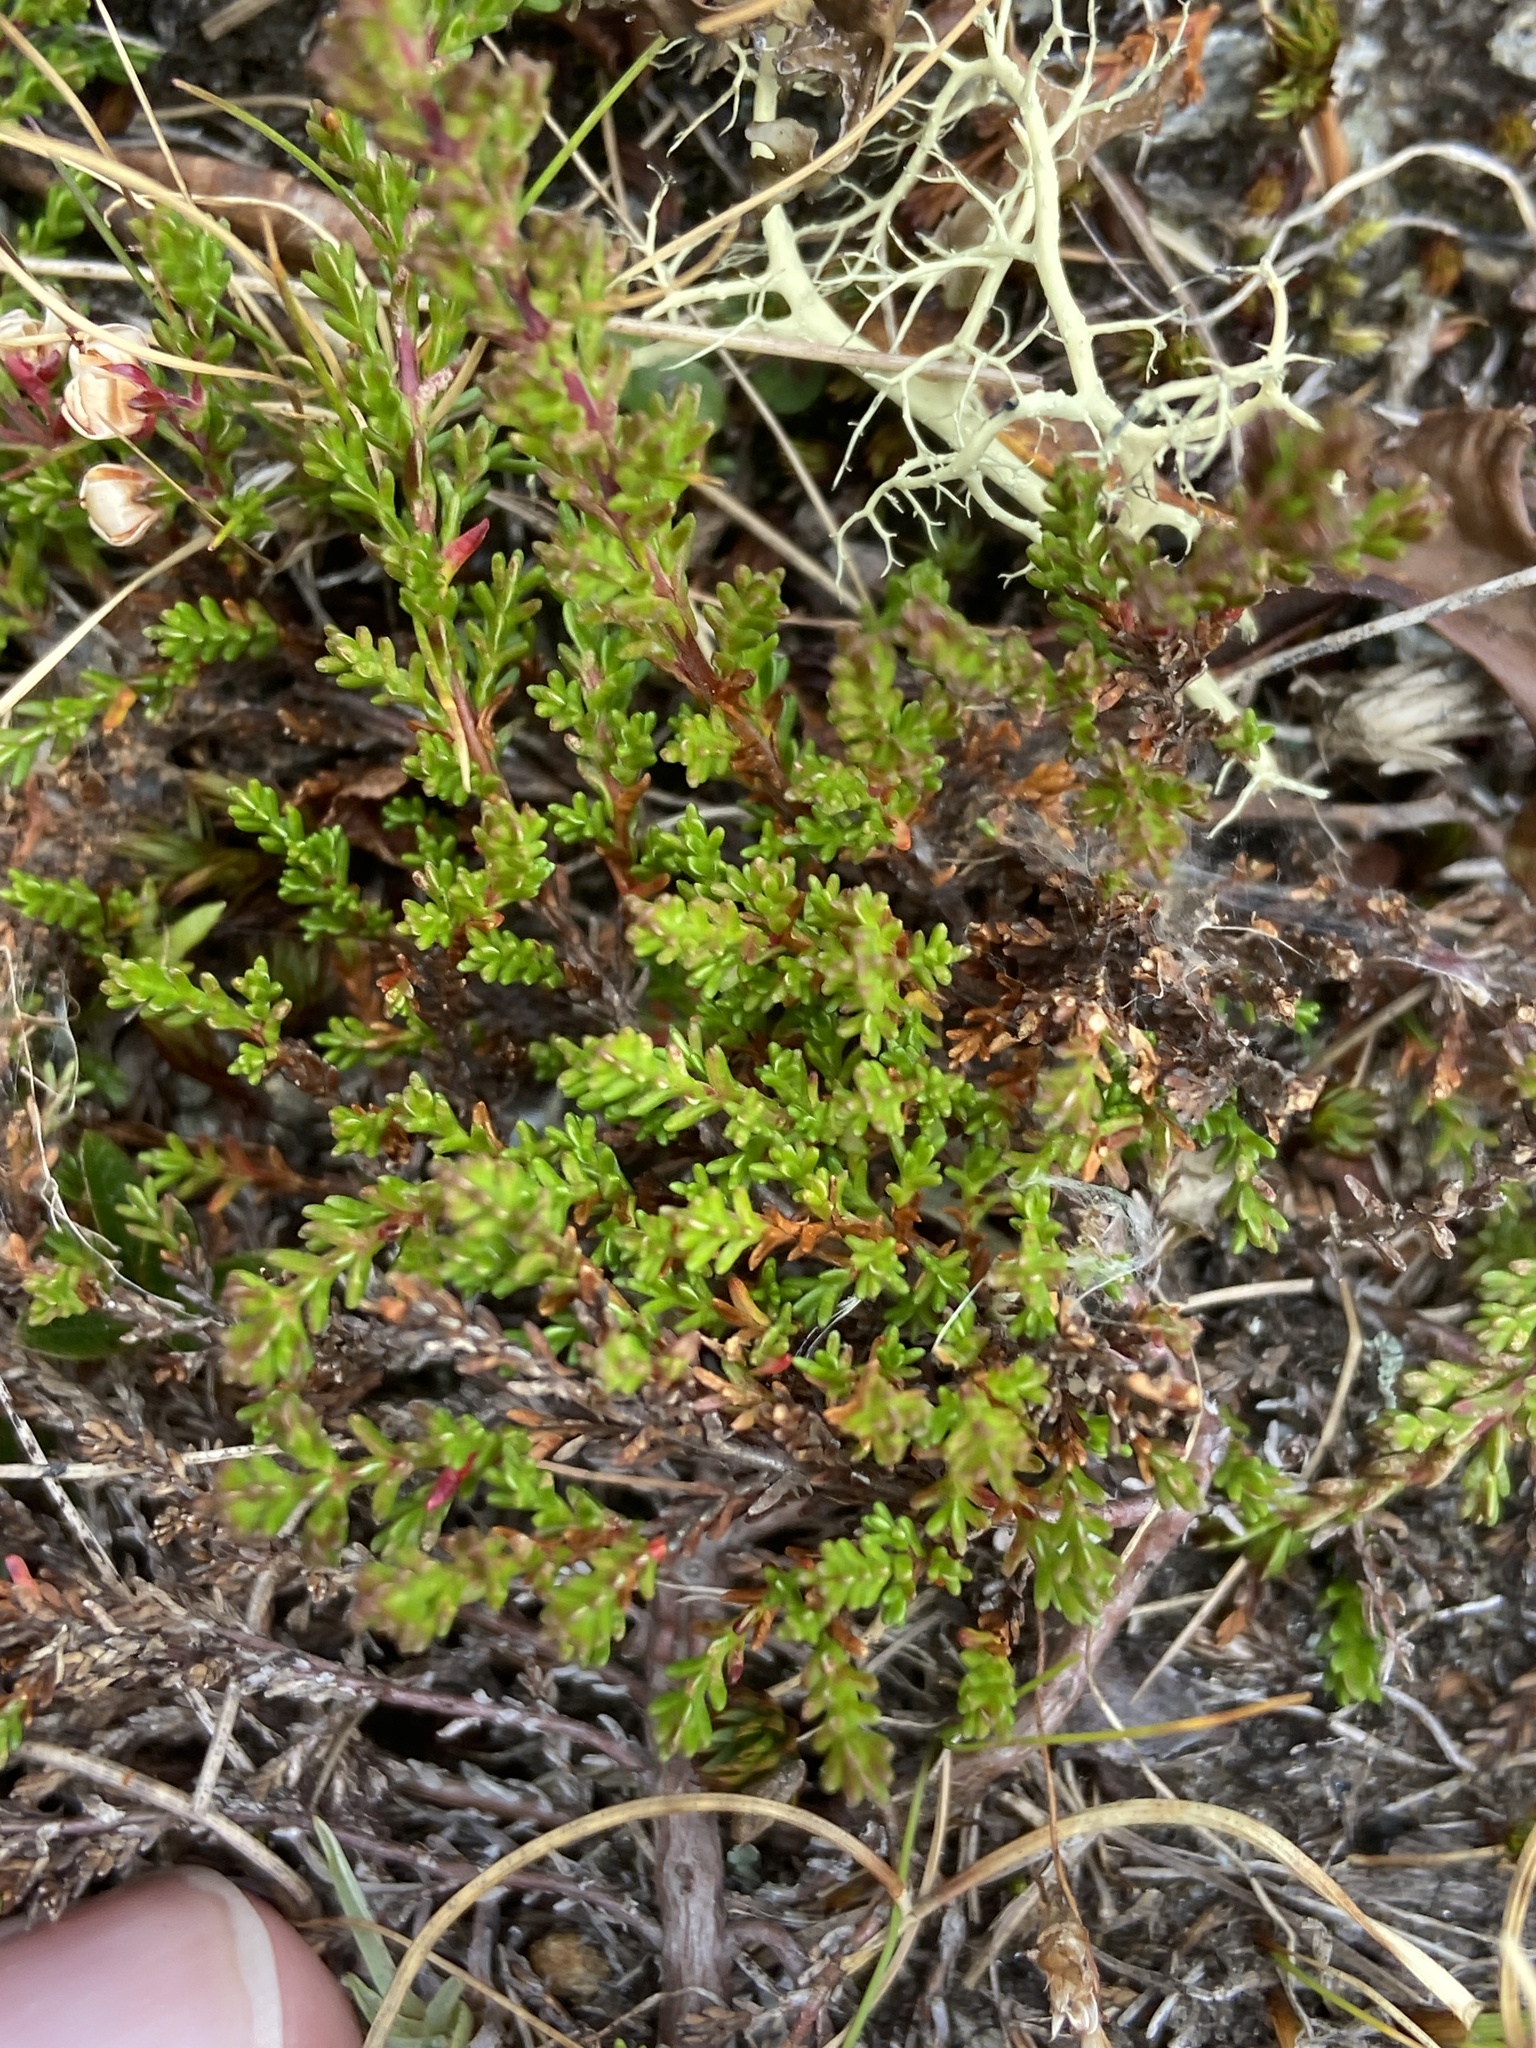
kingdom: Plantae
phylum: Tracheophyta
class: Magnoliopsida
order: Ericales
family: Ericaceae
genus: Calluna
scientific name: Calluna vulgaris
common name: Heather
